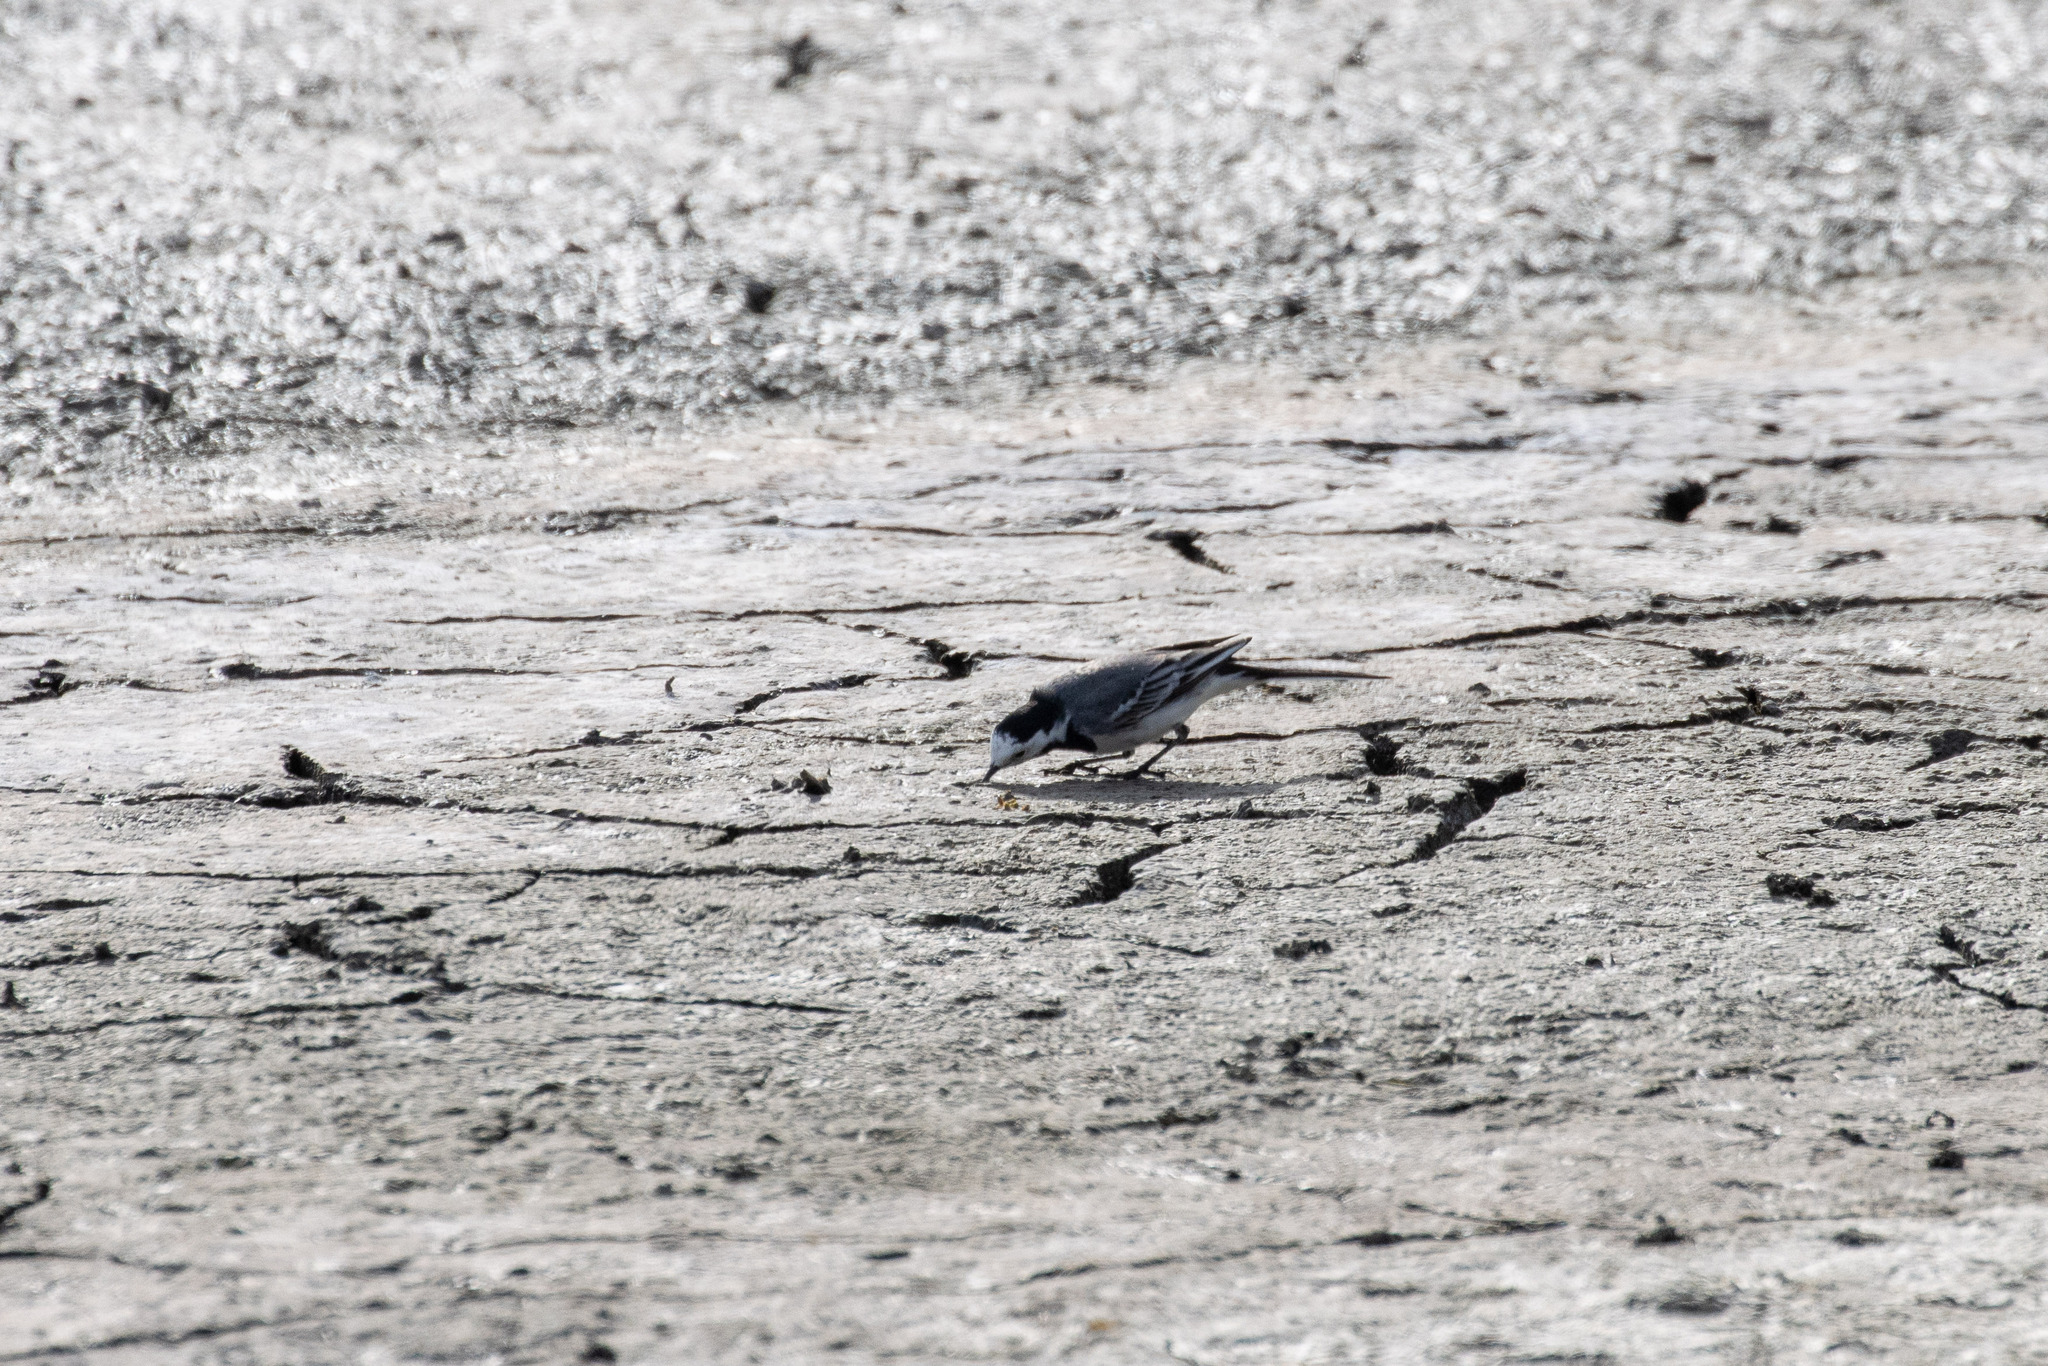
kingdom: Animalia
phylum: Chordata
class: Aves
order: Passeriformes
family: Motacillidae
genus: Motacilla
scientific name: Motacilla alba
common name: White wagtail
